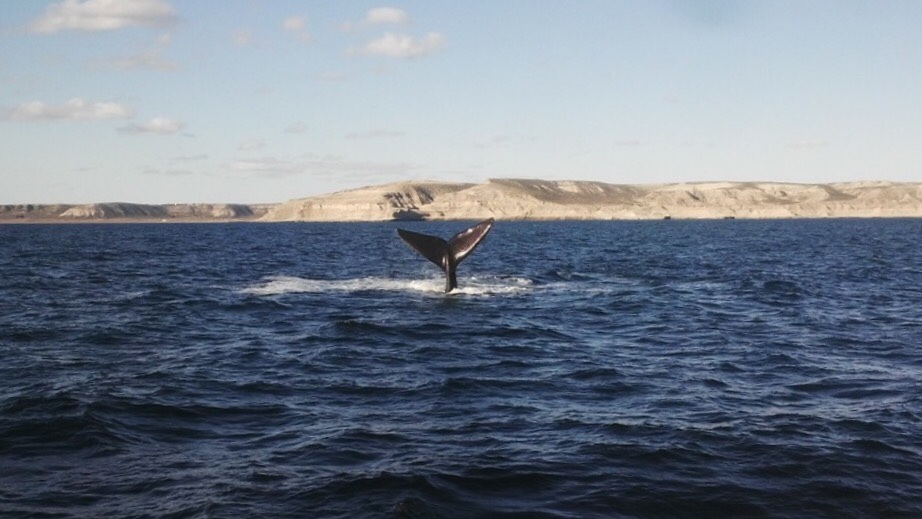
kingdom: Animalia
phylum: Chordata
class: Mammalia
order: Cetacea
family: Balaenidae
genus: Eubalaena
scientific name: Eubalaena australis
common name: Southern right whale
